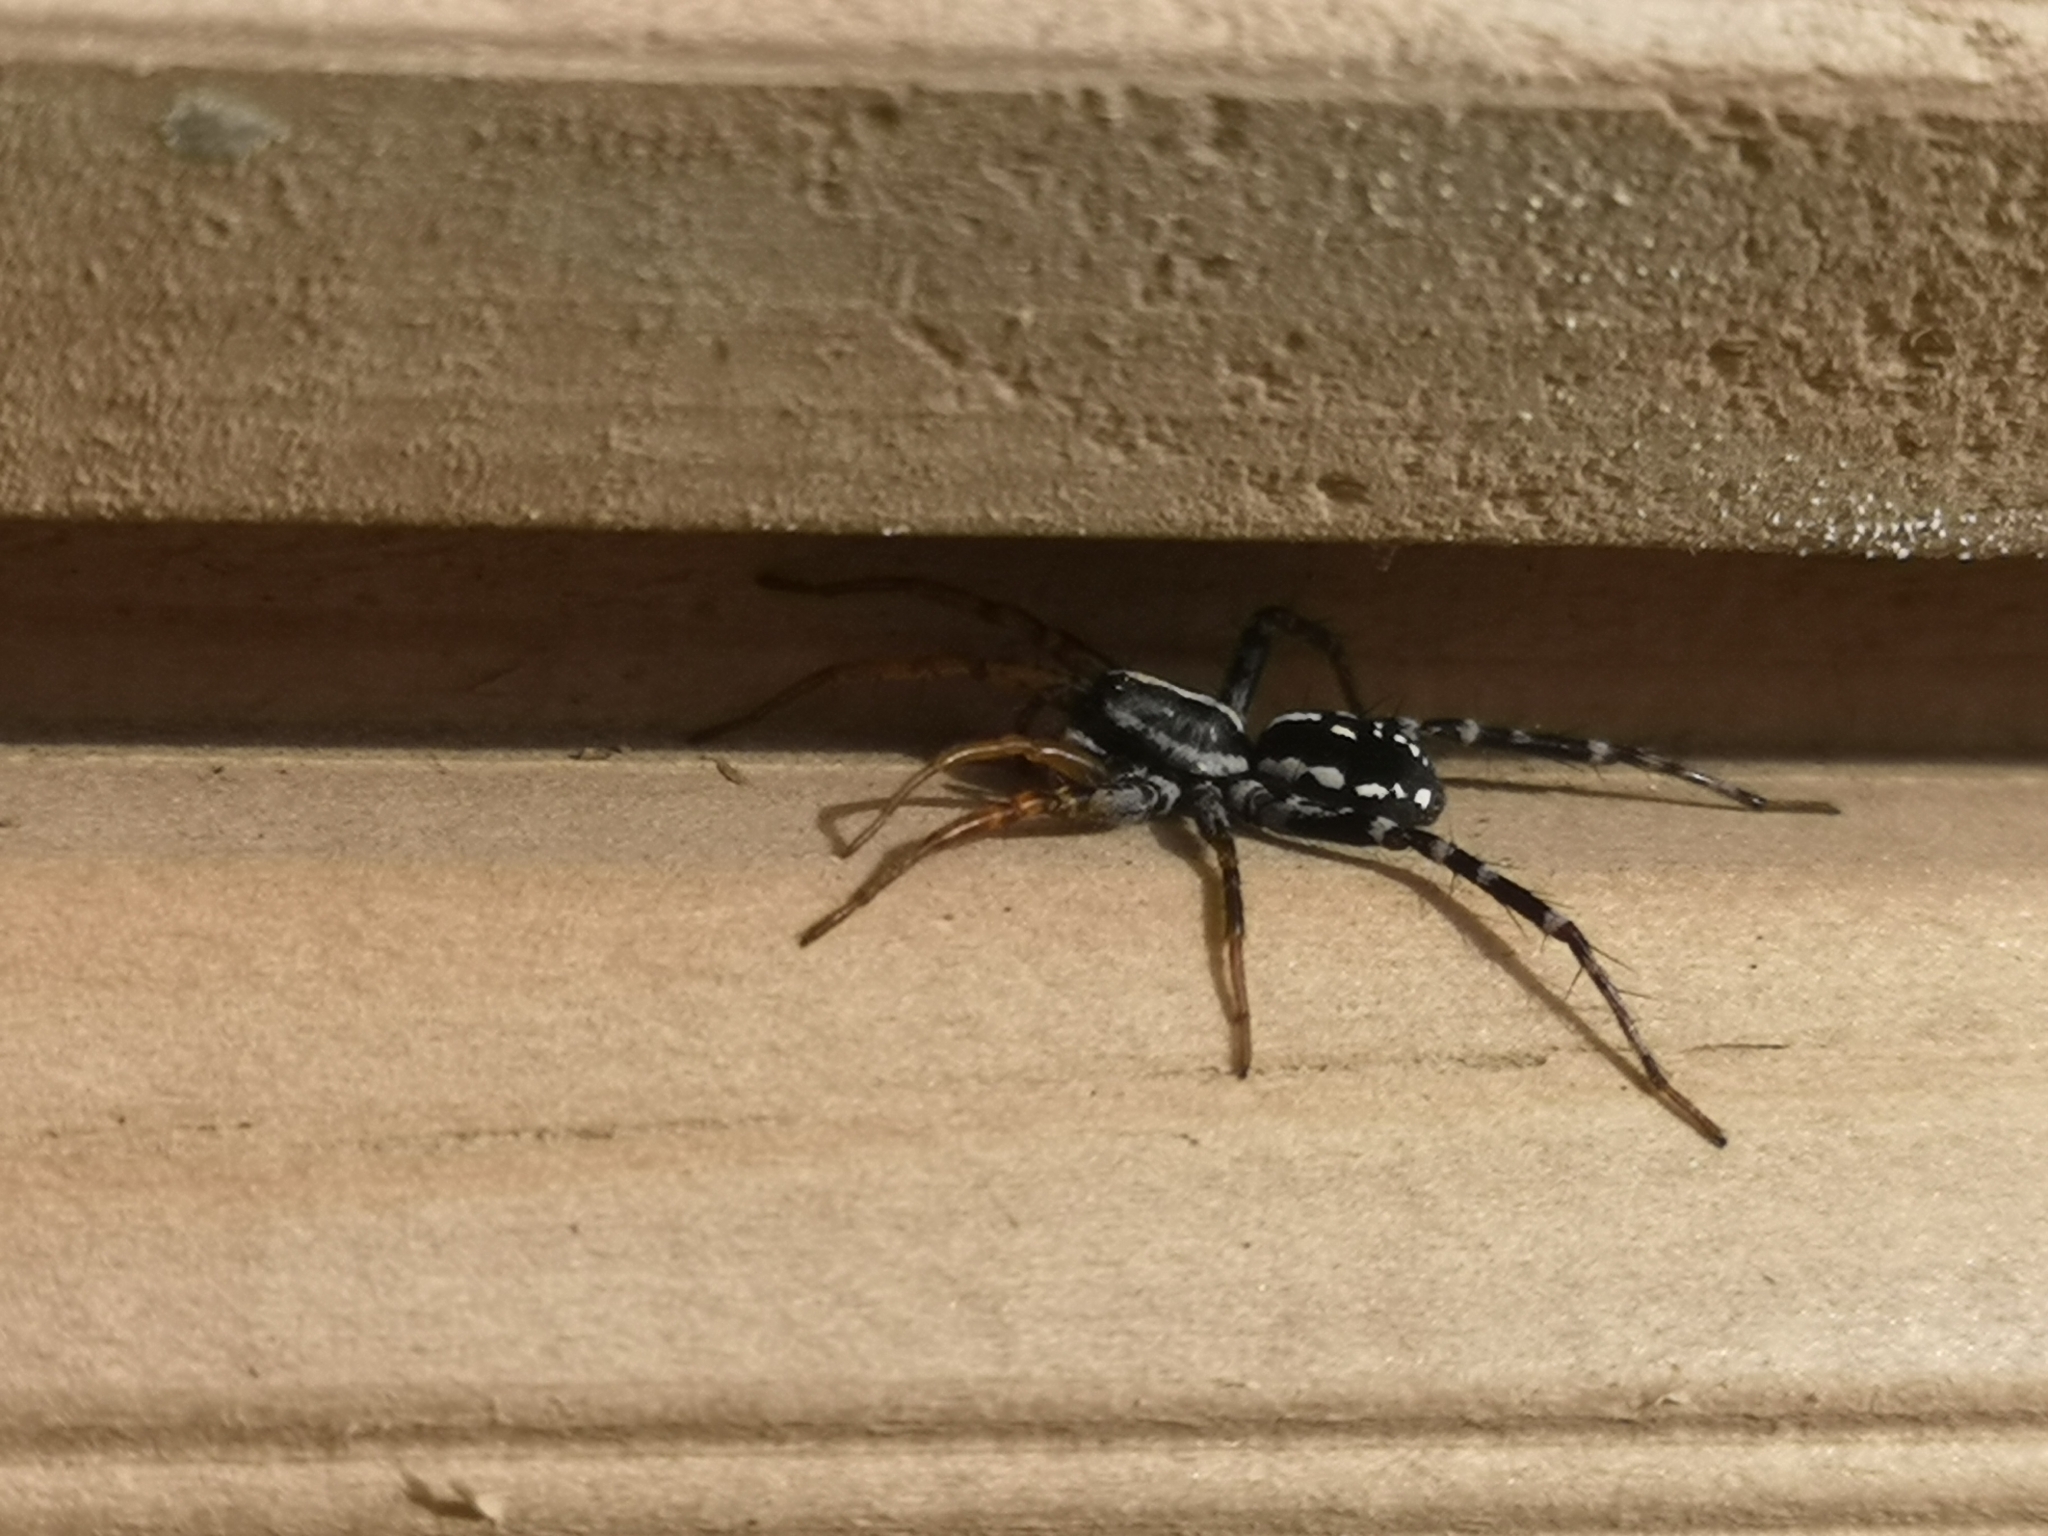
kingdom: Animalia
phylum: Arthropoda
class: Arachnida
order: Araneae
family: Corinnidae
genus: Nyssus
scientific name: Nyssus coloripes
